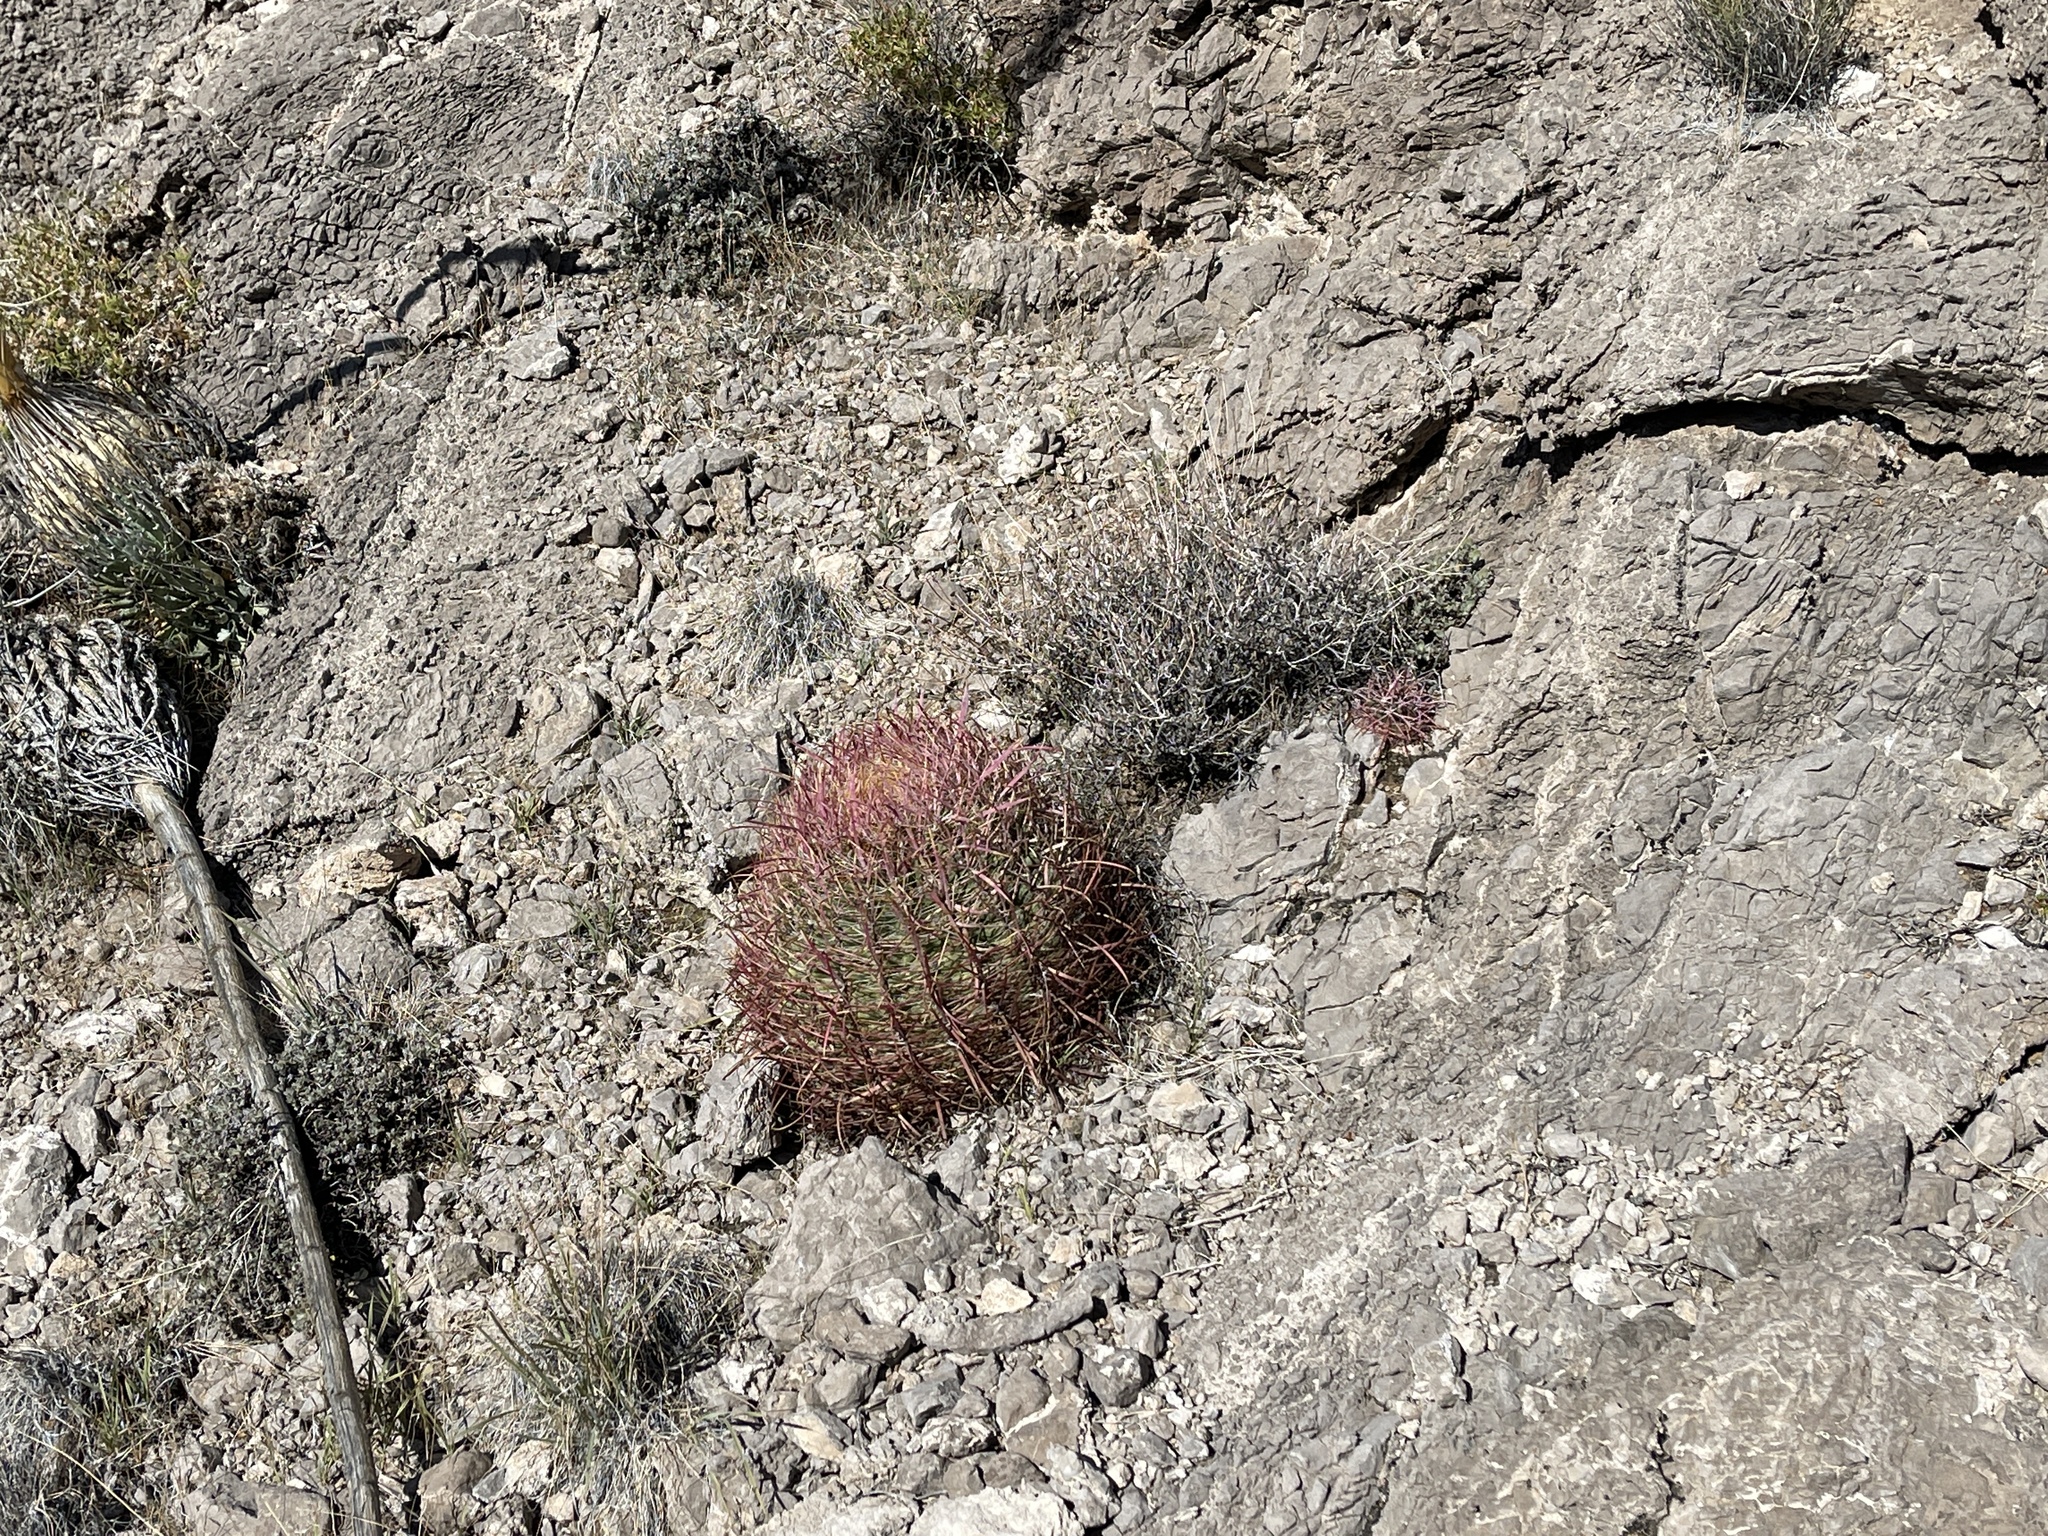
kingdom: Plantae
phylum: Tracheophyta
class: Magnoliopsida
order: Caryophyllales
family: Cactaceae
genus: Ferocactus
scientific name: Ferocactus cylindraceus
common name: California barrel cactus
